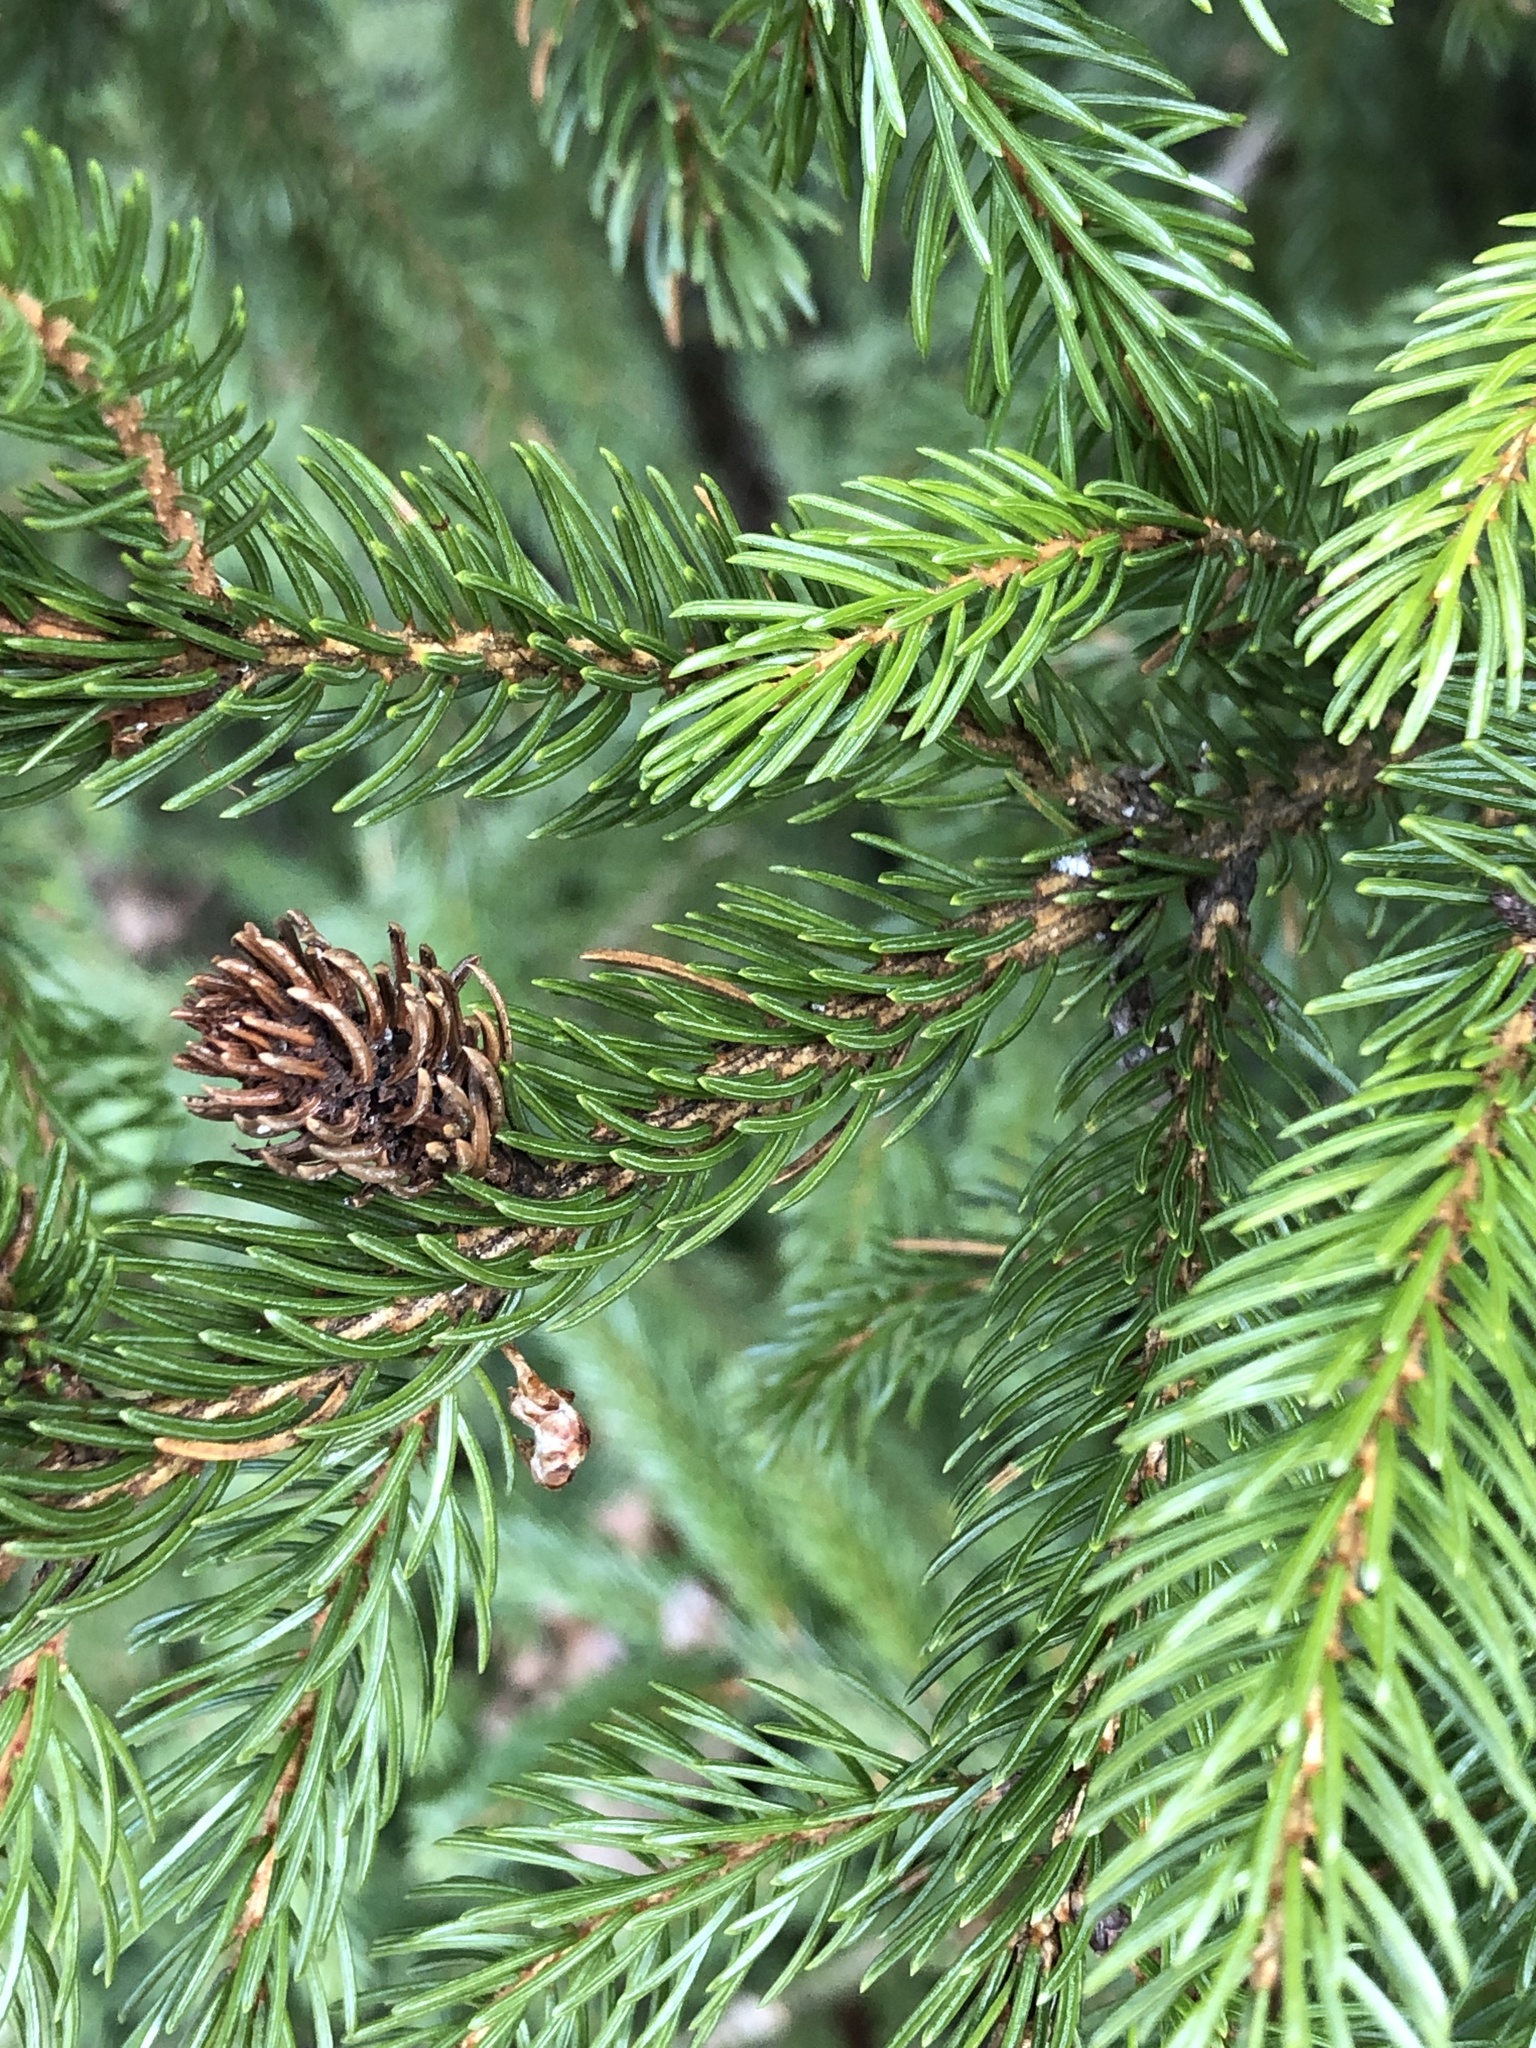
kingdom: Animalia
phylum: Arthropoda
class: Insecta
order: Hemiptera
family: Adelgidae
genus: Adelges
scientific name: Adelges abietis
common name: Eastern spruce gall adelgid
